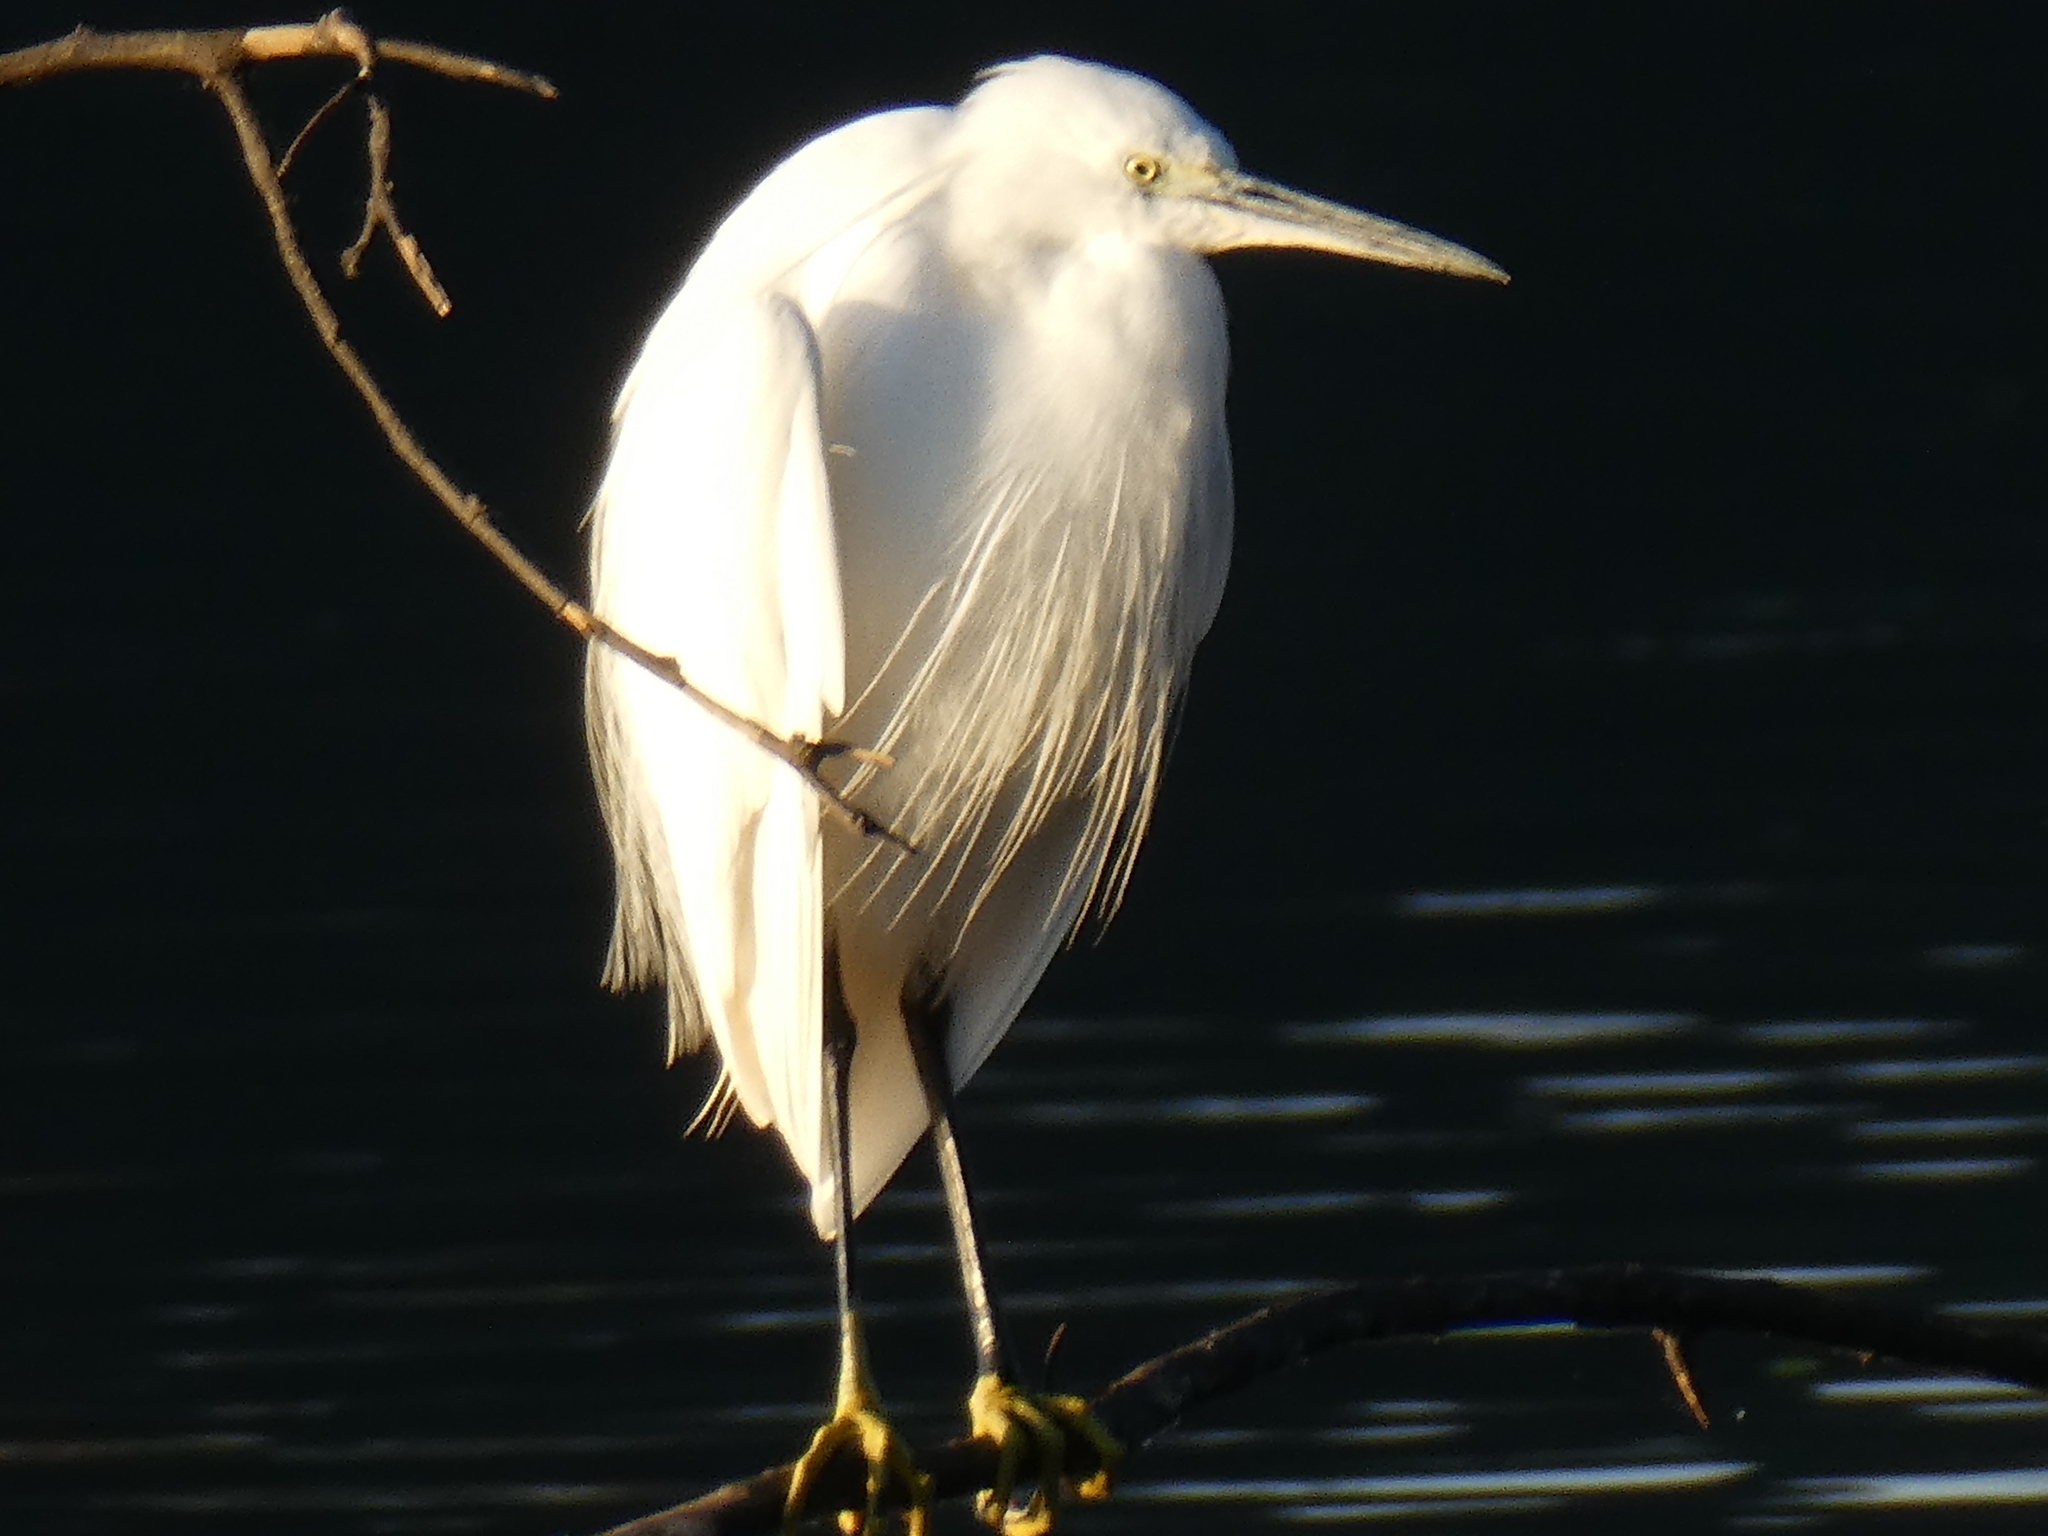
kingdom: Animalia
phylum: Chordata
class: Aves
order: Pelecaniformes
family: Ardeidae
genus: Egretta
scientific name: Egretta garzetta
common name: Little egret
